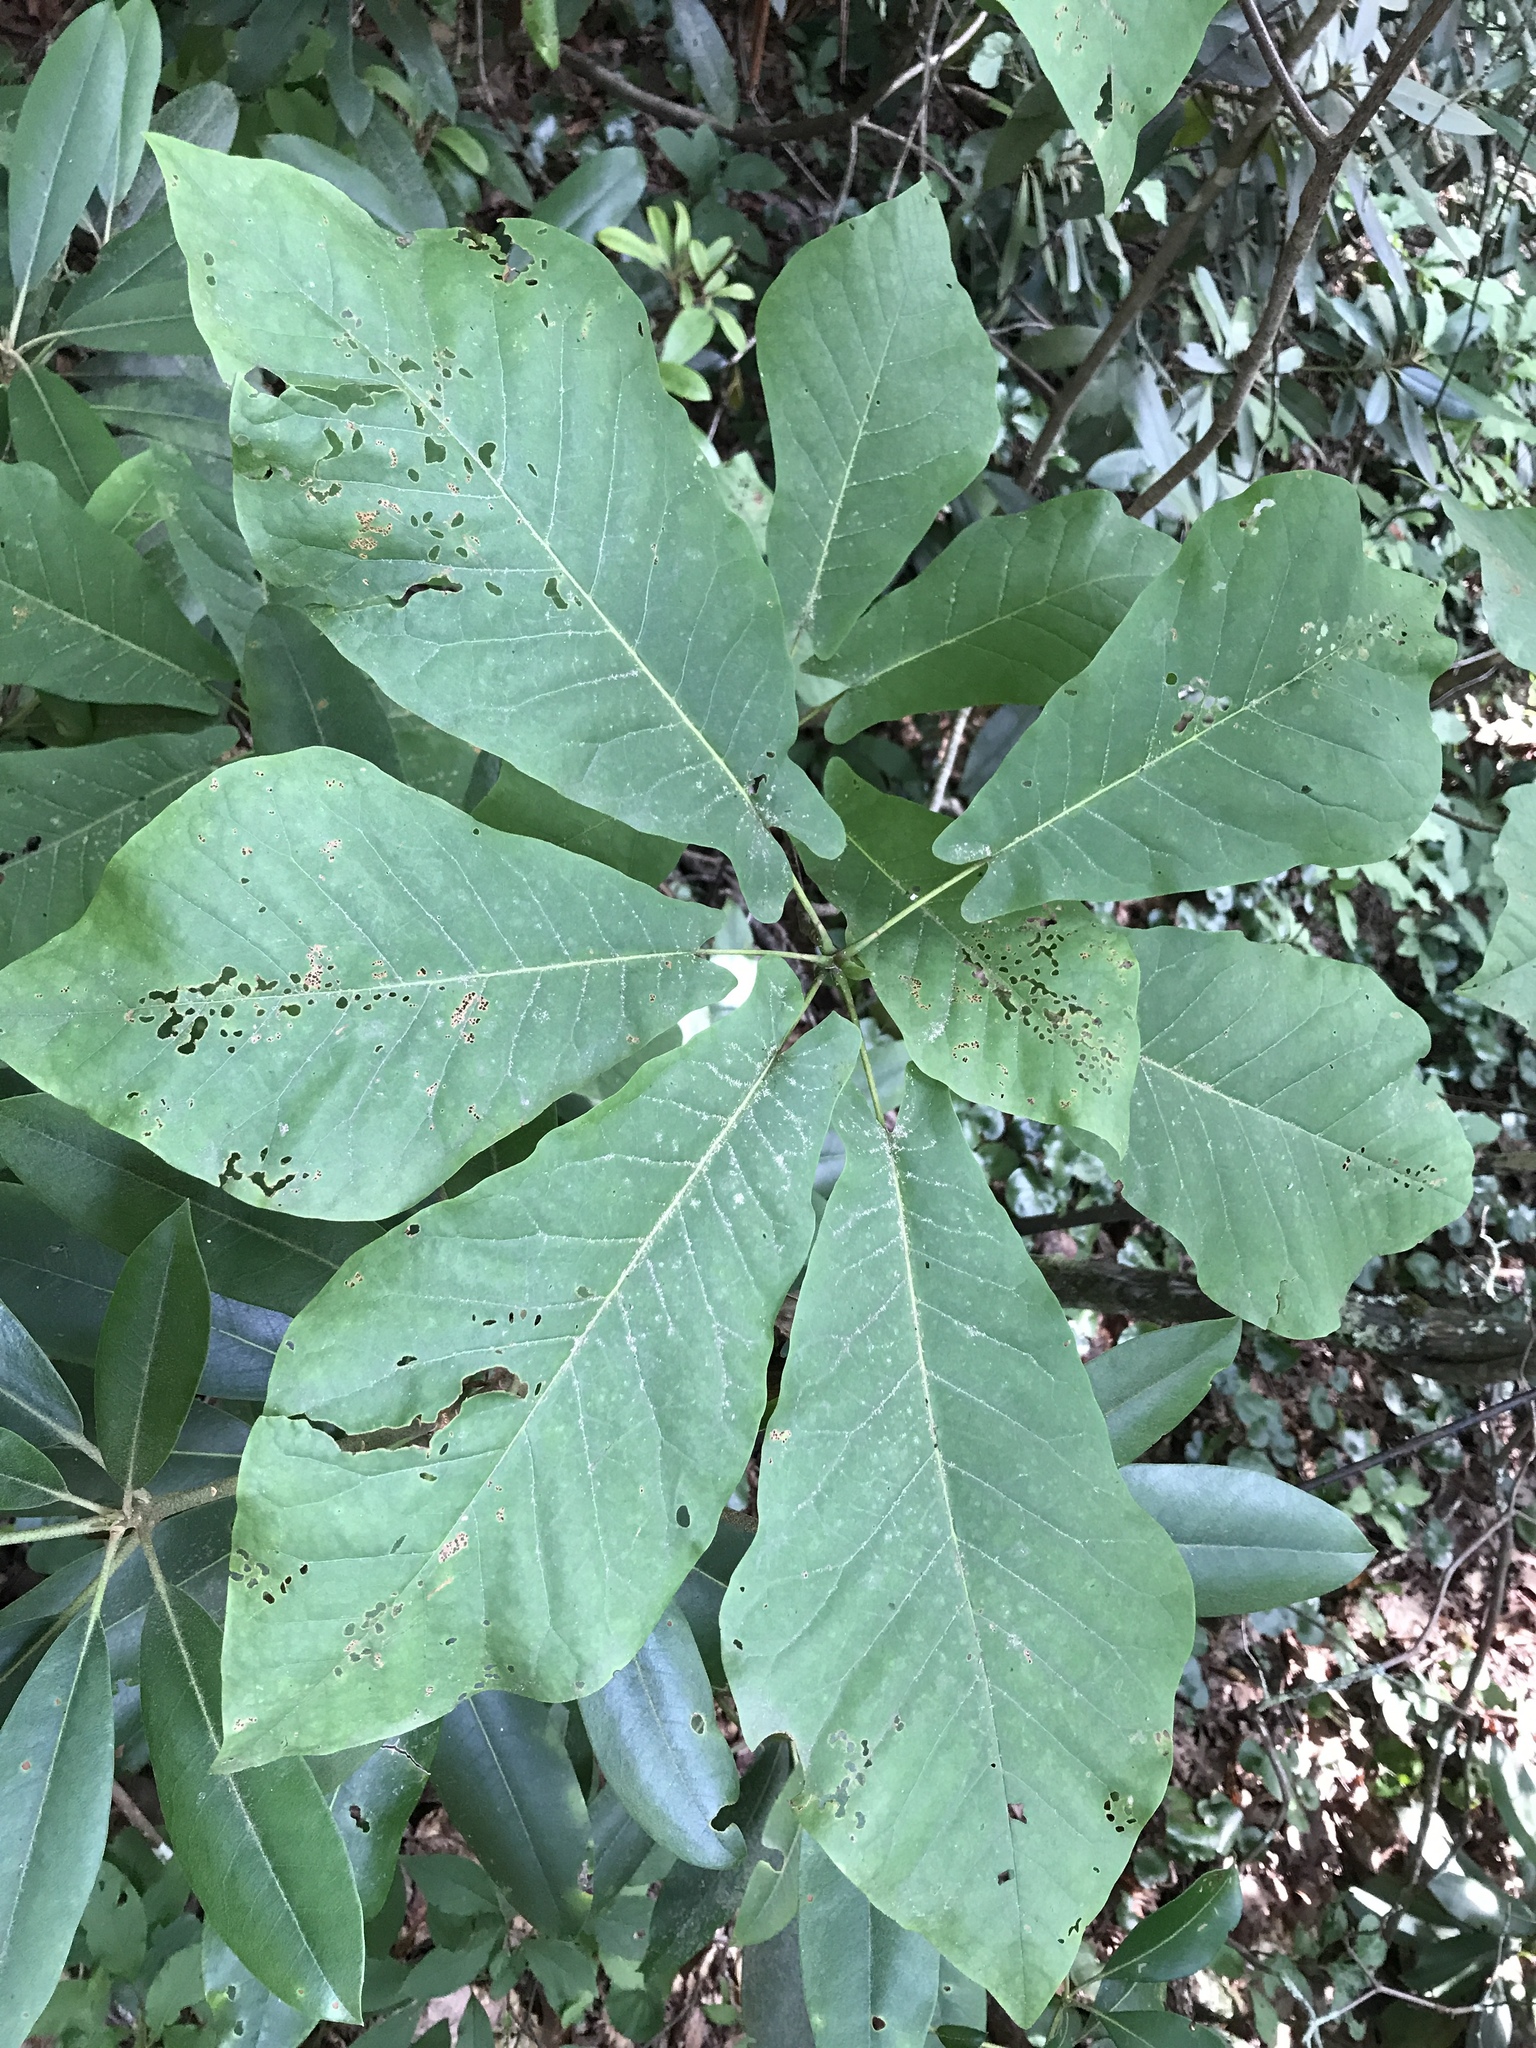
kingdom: Plantae
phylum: Tracheophyta
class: Magnoliopsida
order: Magnoliales
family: Magnoliaceae
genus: Magnolia
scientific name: Magnolia fraseri
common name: Fraser's magnolia
